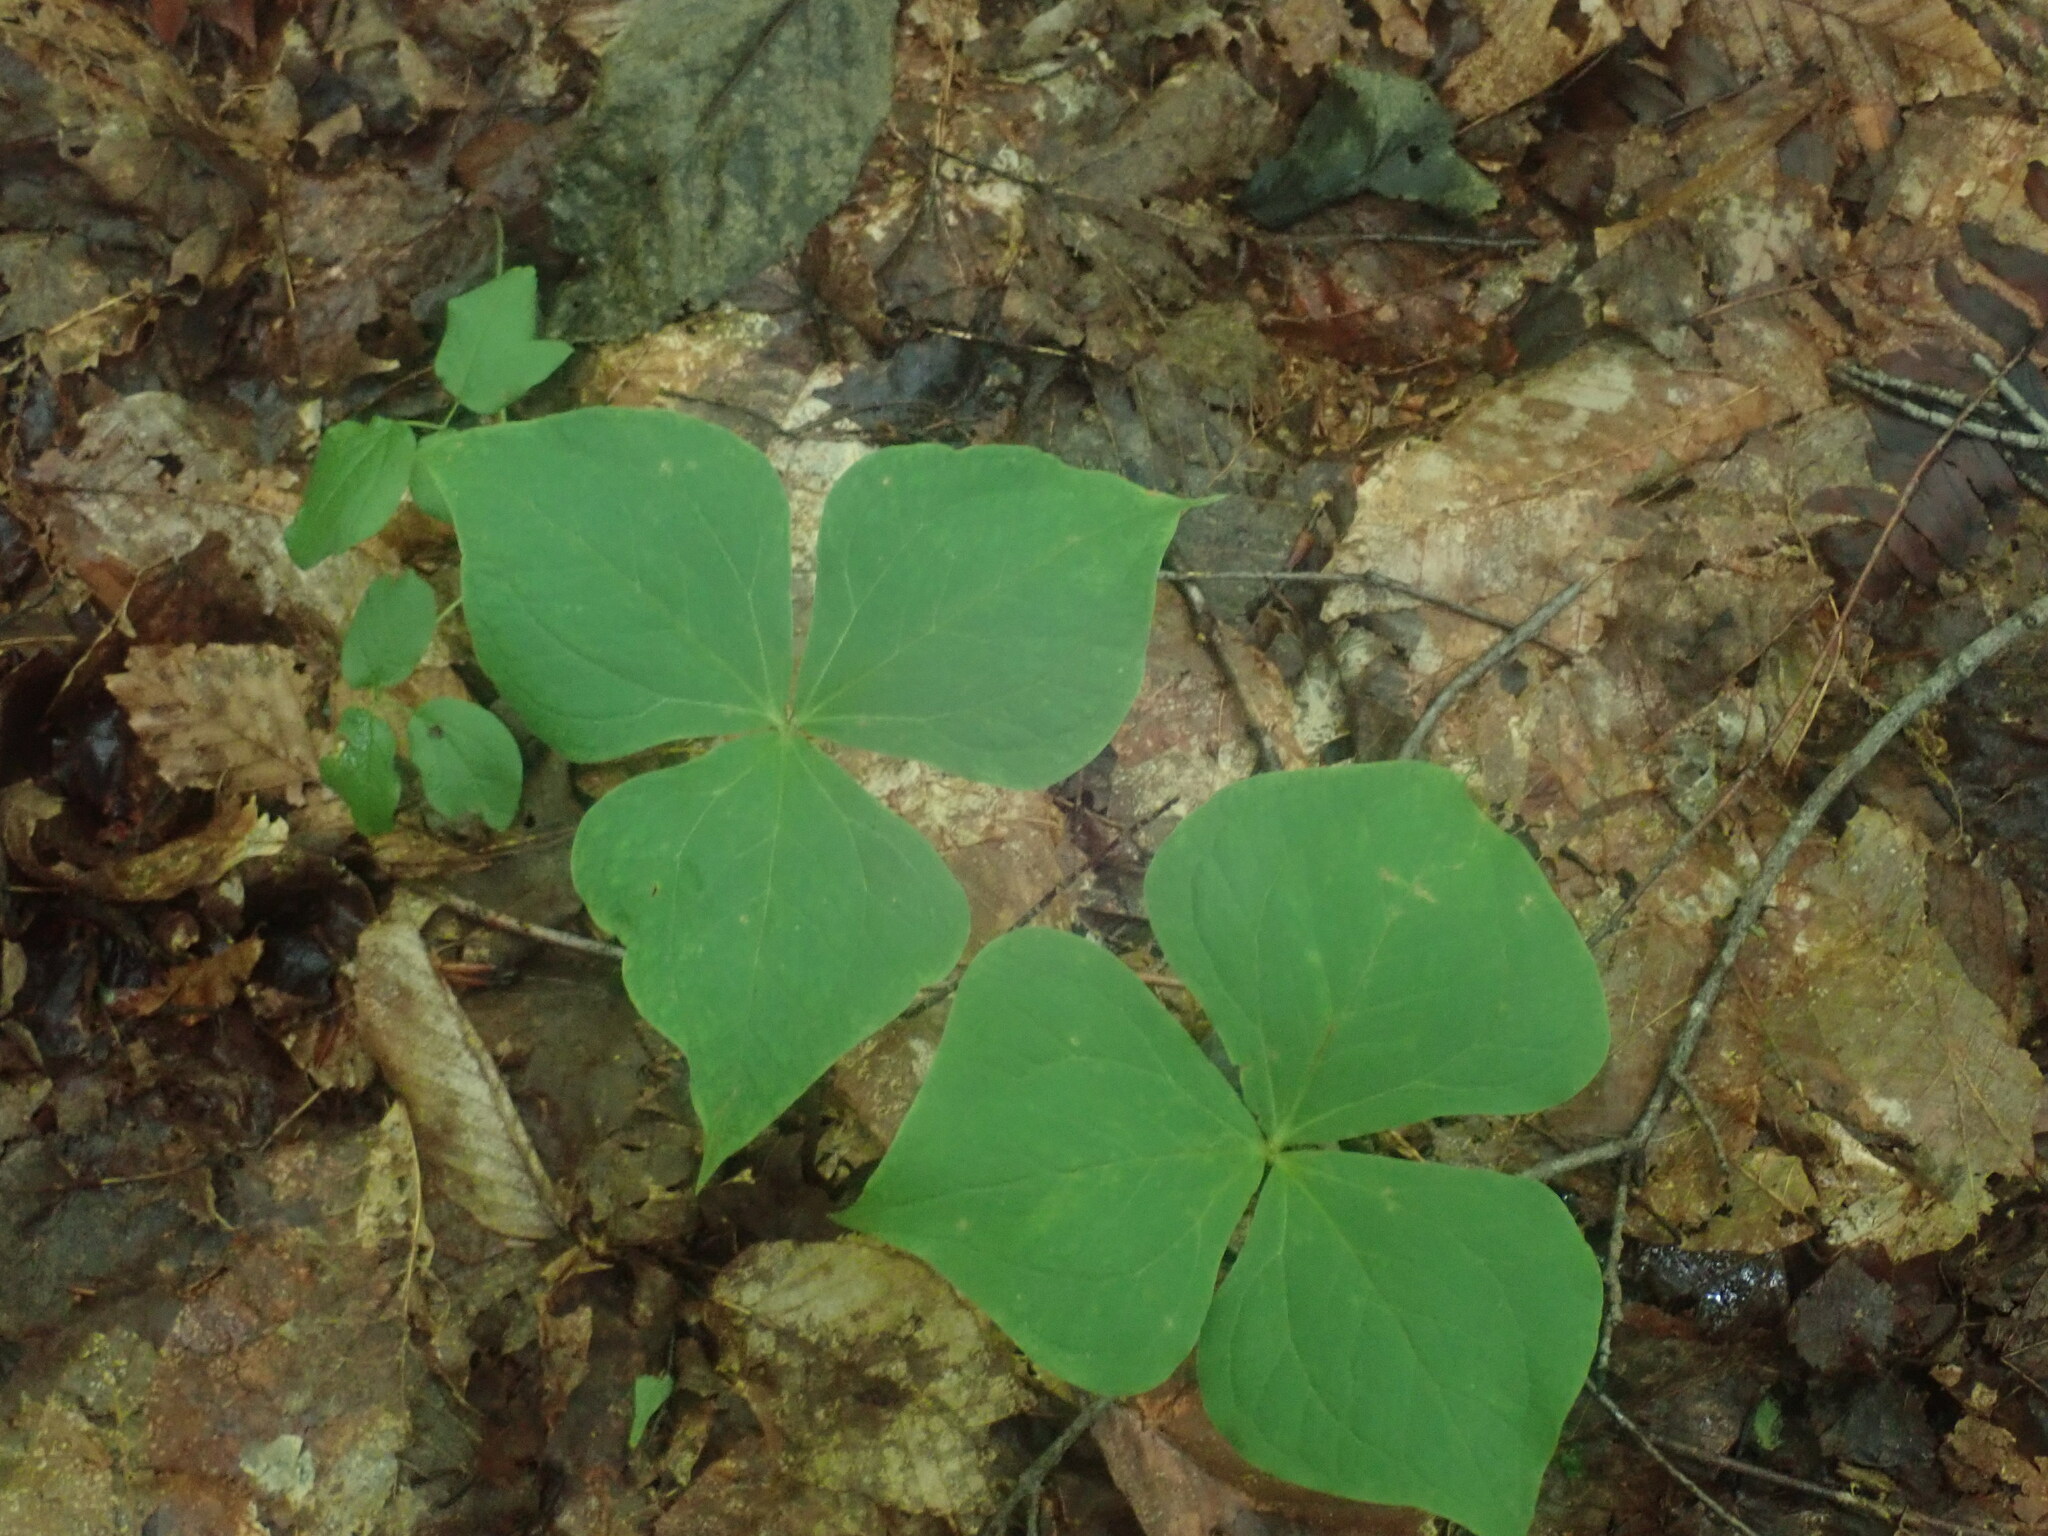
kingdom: Plantae
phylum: Tracheophyta
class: Liliopsida
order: Liliales
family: Melanthiaceae
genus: Trillium
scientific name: Trillium erectum
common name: Purple trillium
